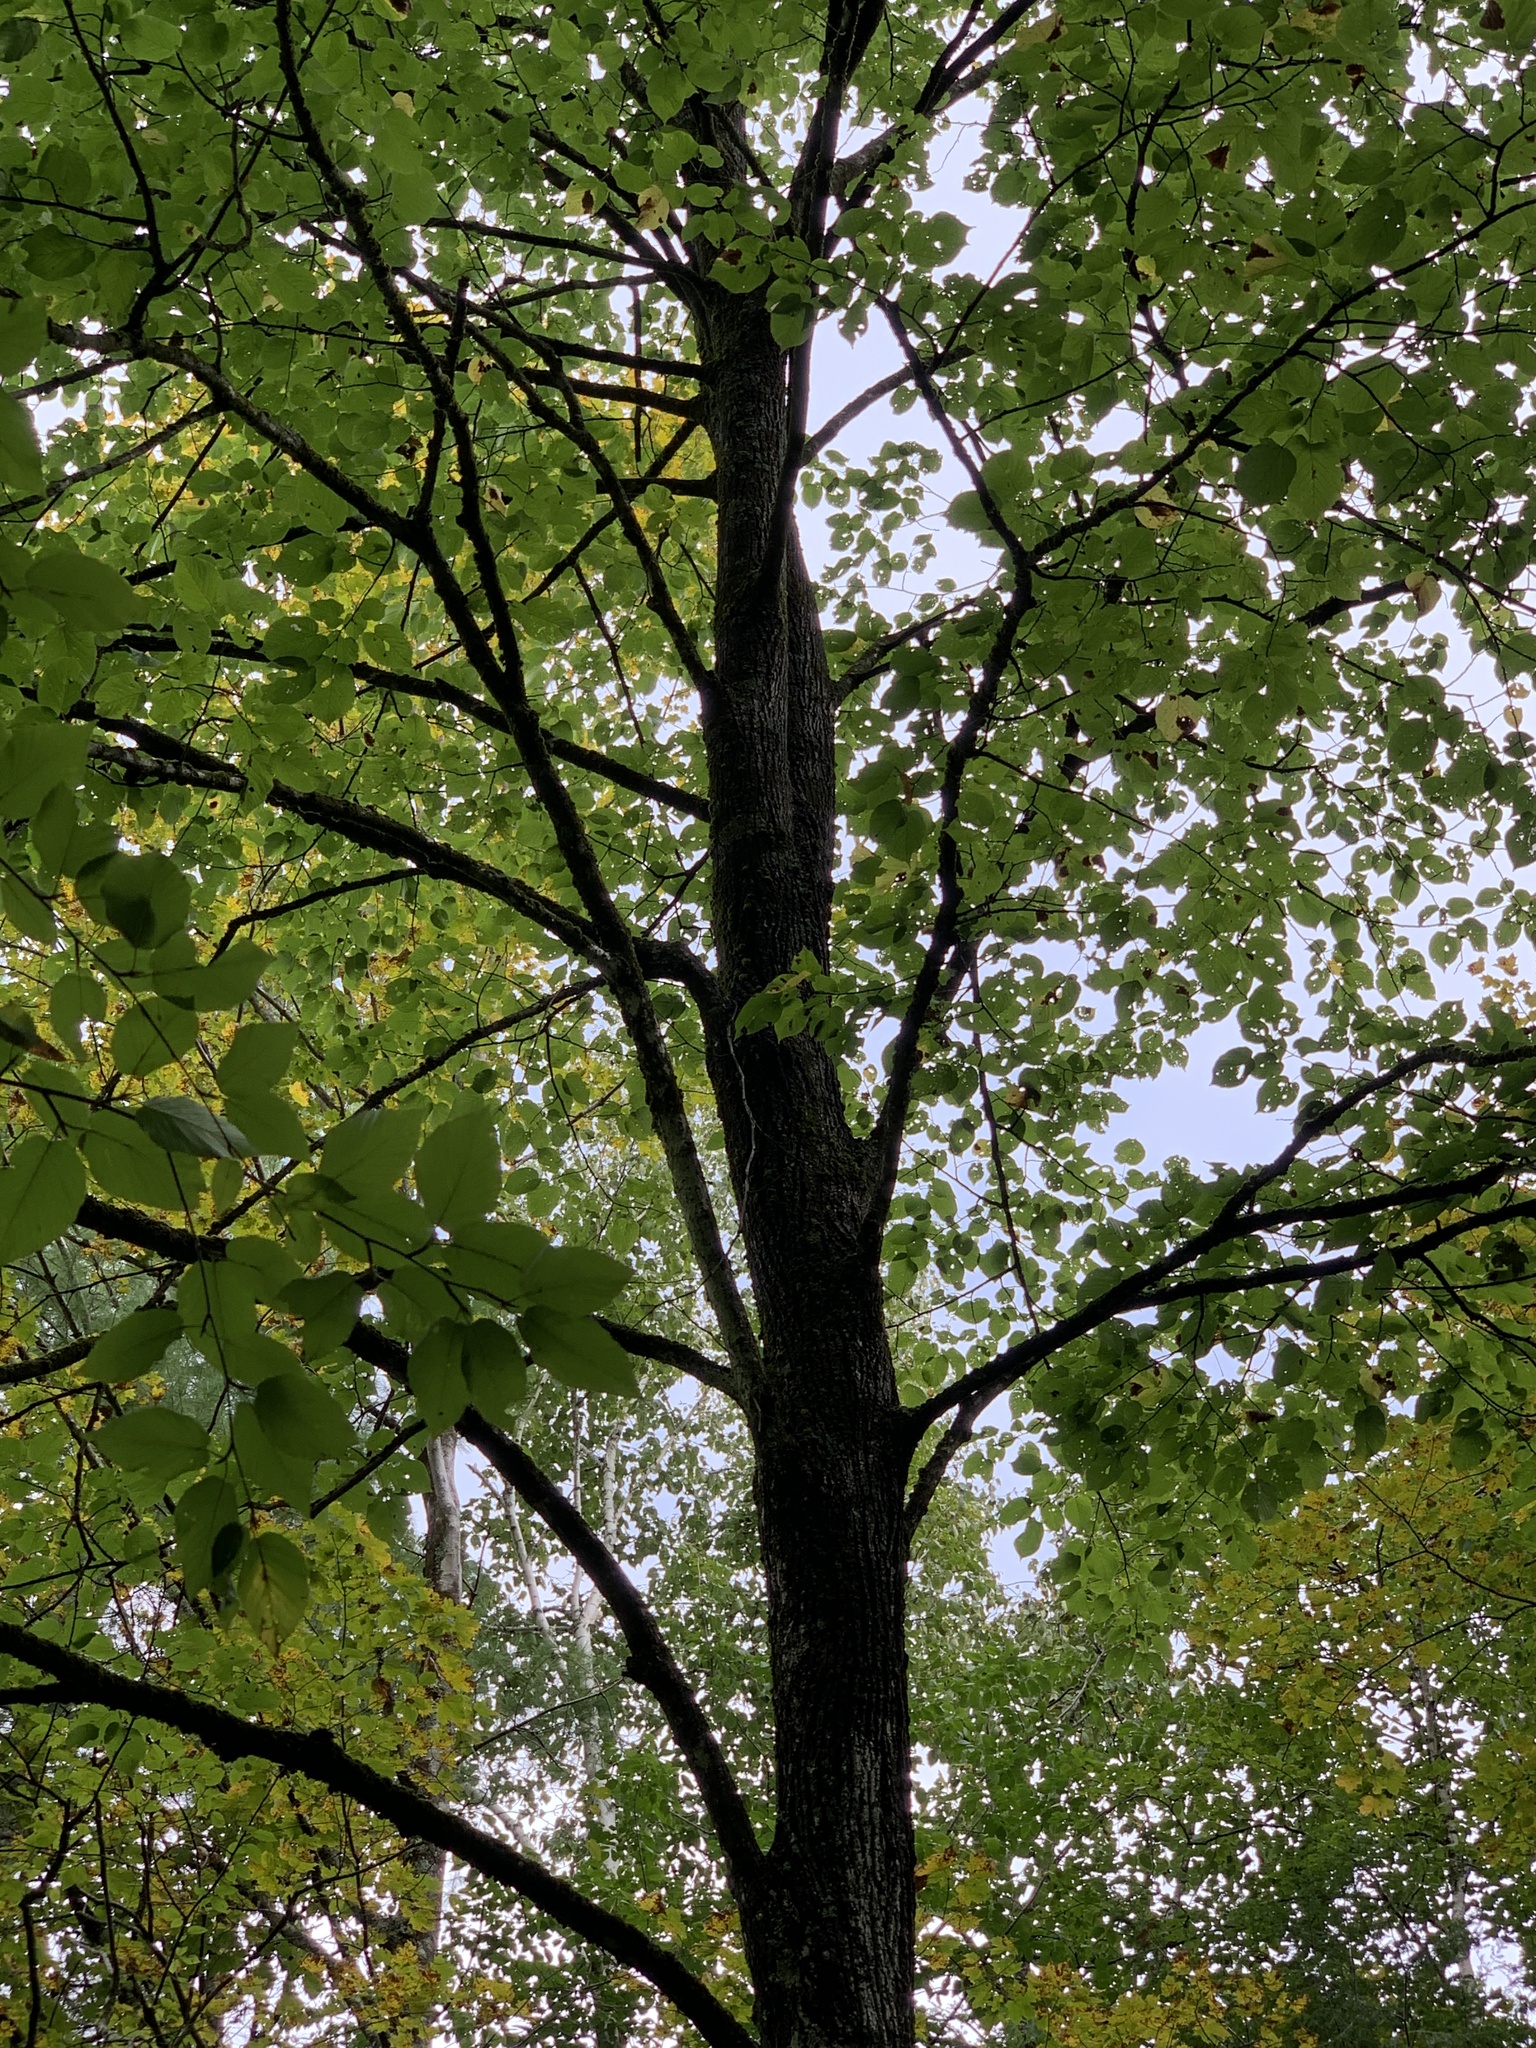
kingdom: Plantae
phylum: Tracheophyta
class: Magnoliopsida
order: Malvales
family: Malvaceae
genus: Tilia
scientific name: Tilia americana
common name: Basswood
